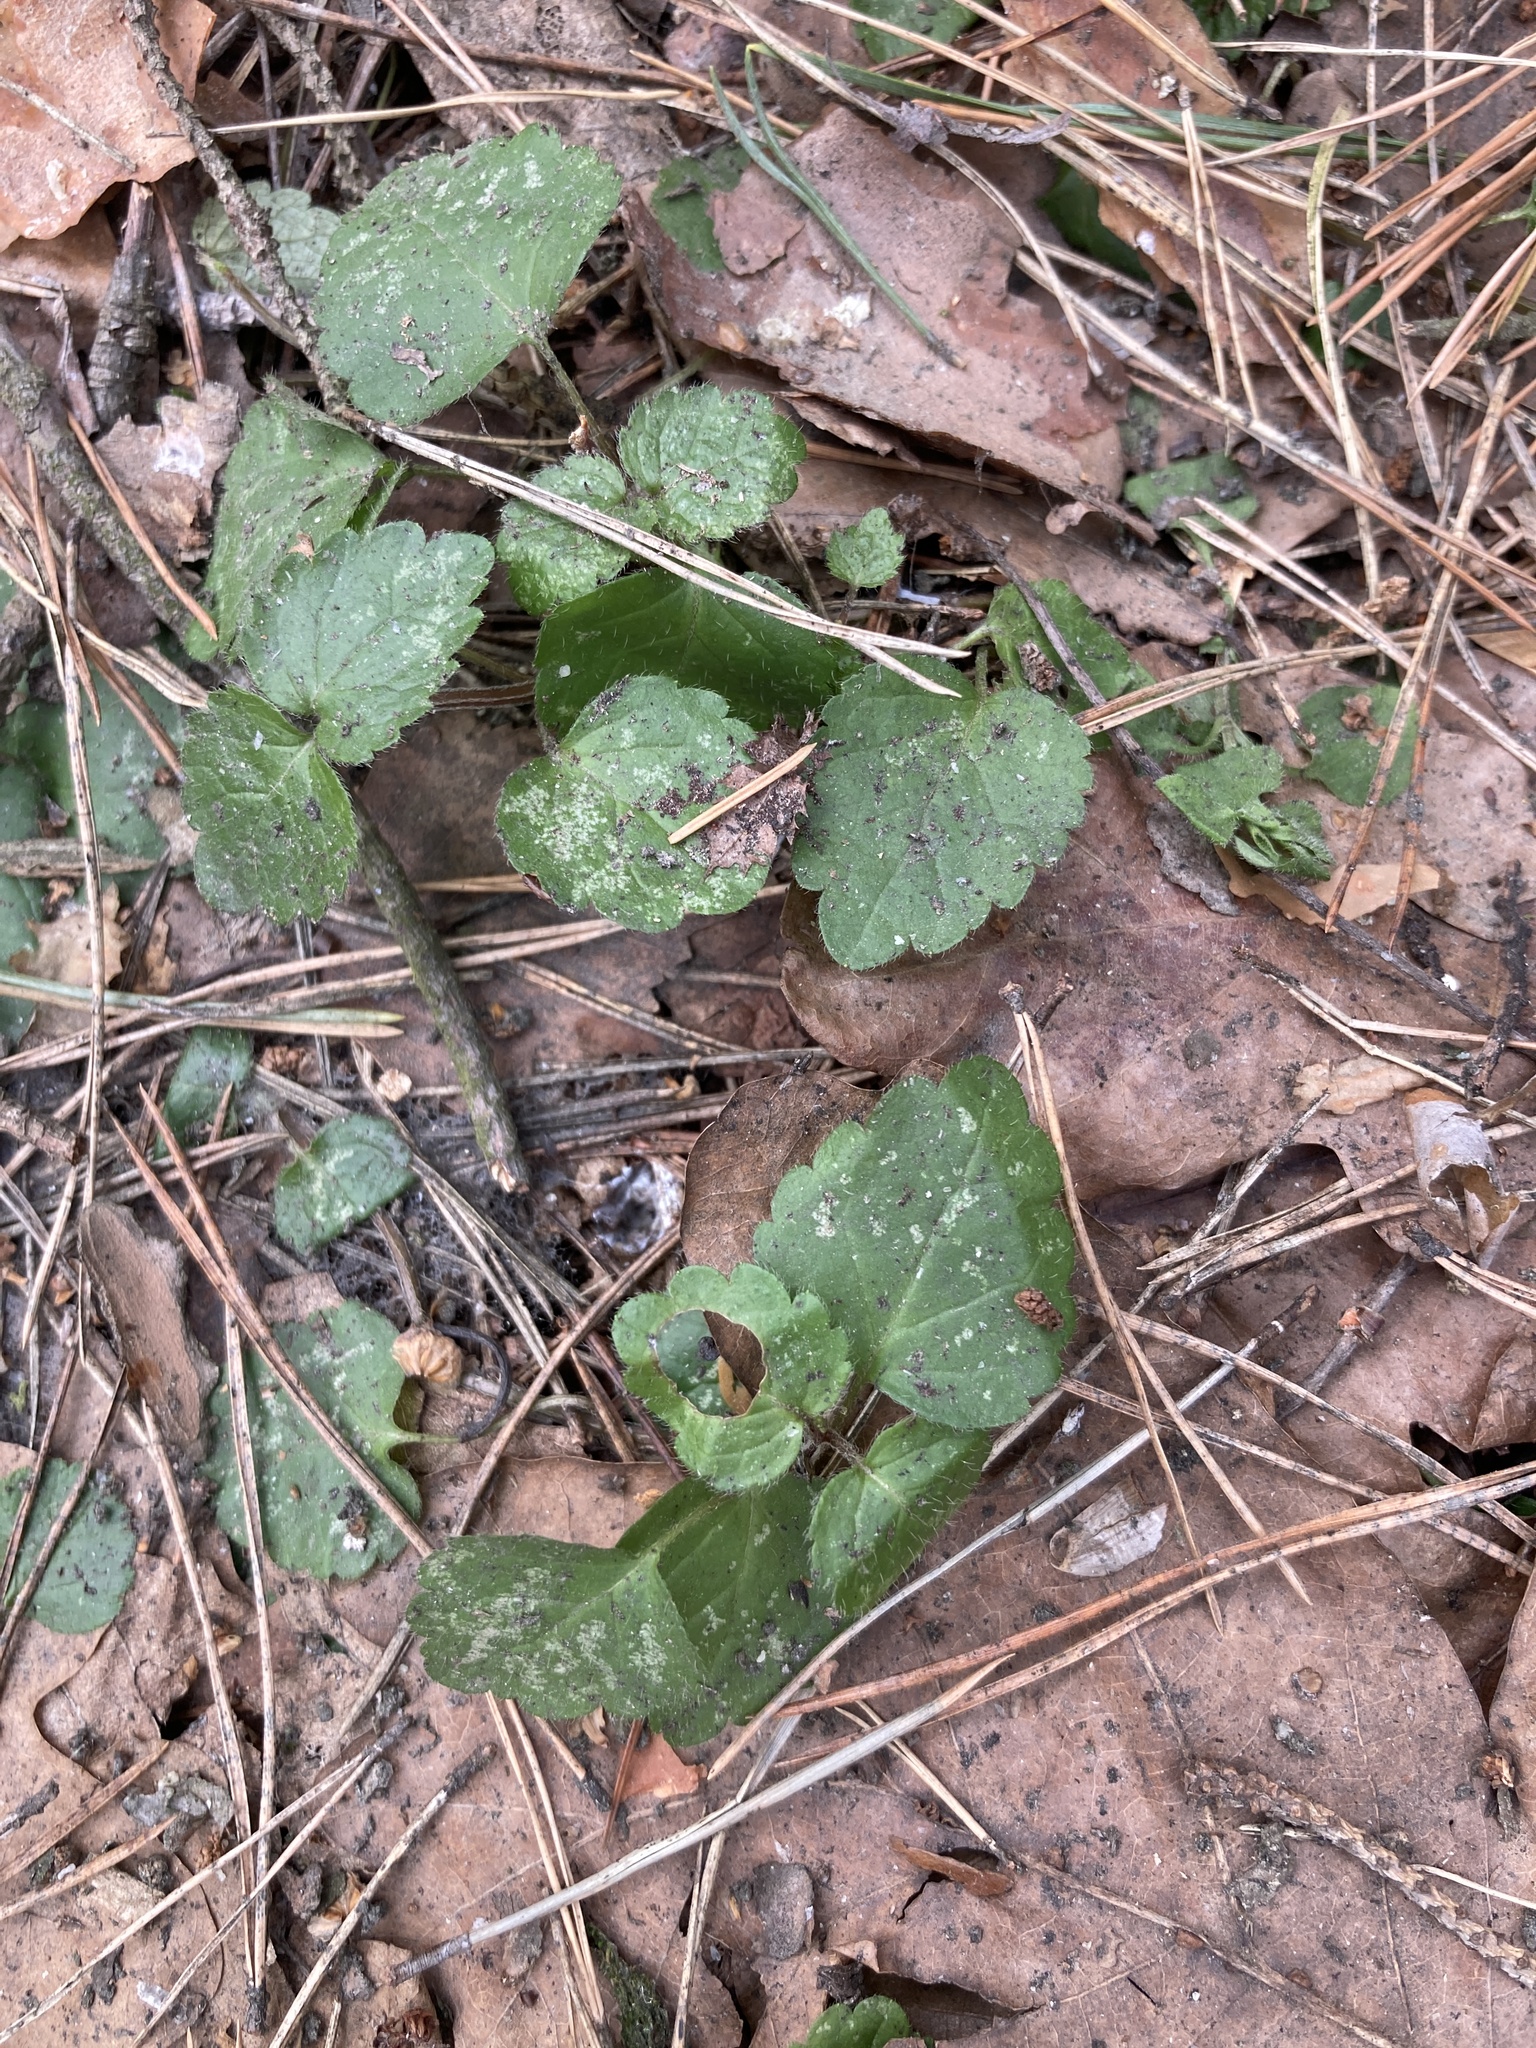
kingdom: Plantae
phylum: Tracheophyta
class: Magnoliopsida
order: Lamiales
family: Lamiaceae
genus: Lamium
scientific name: Lamium galeobdolon
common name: Yellow archangel
